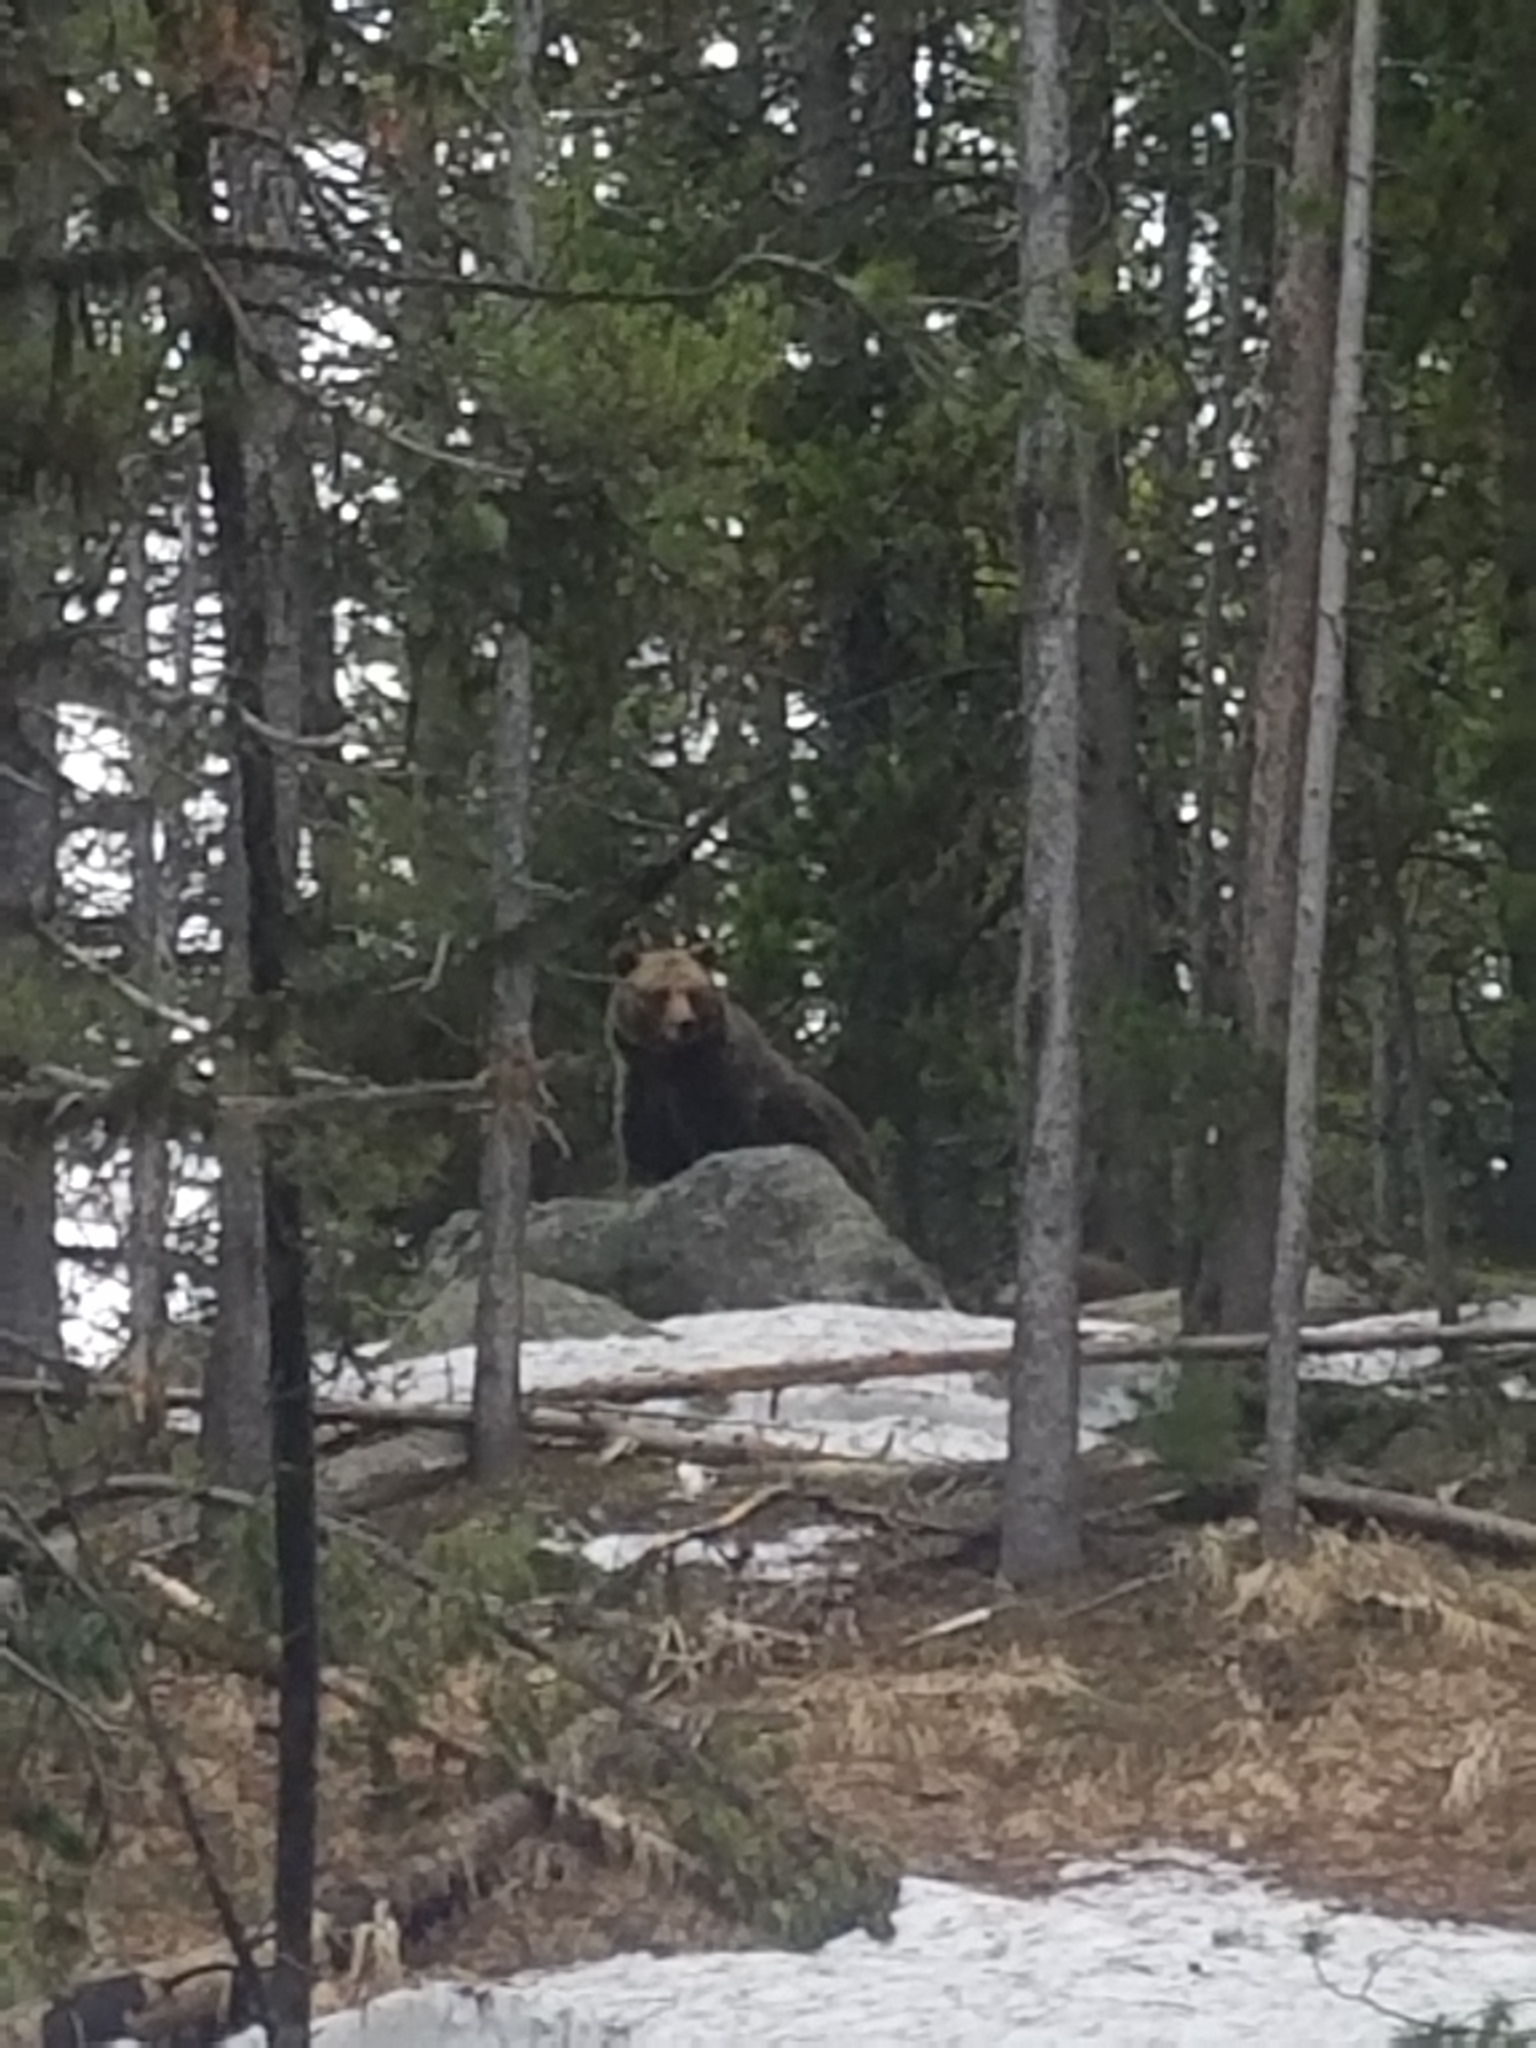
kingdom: Animalia
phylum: Chordata
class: Mammalia
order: Carnivora
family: Ursidae
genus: Ursus
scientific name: Ursus arctos
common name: Brown bear
